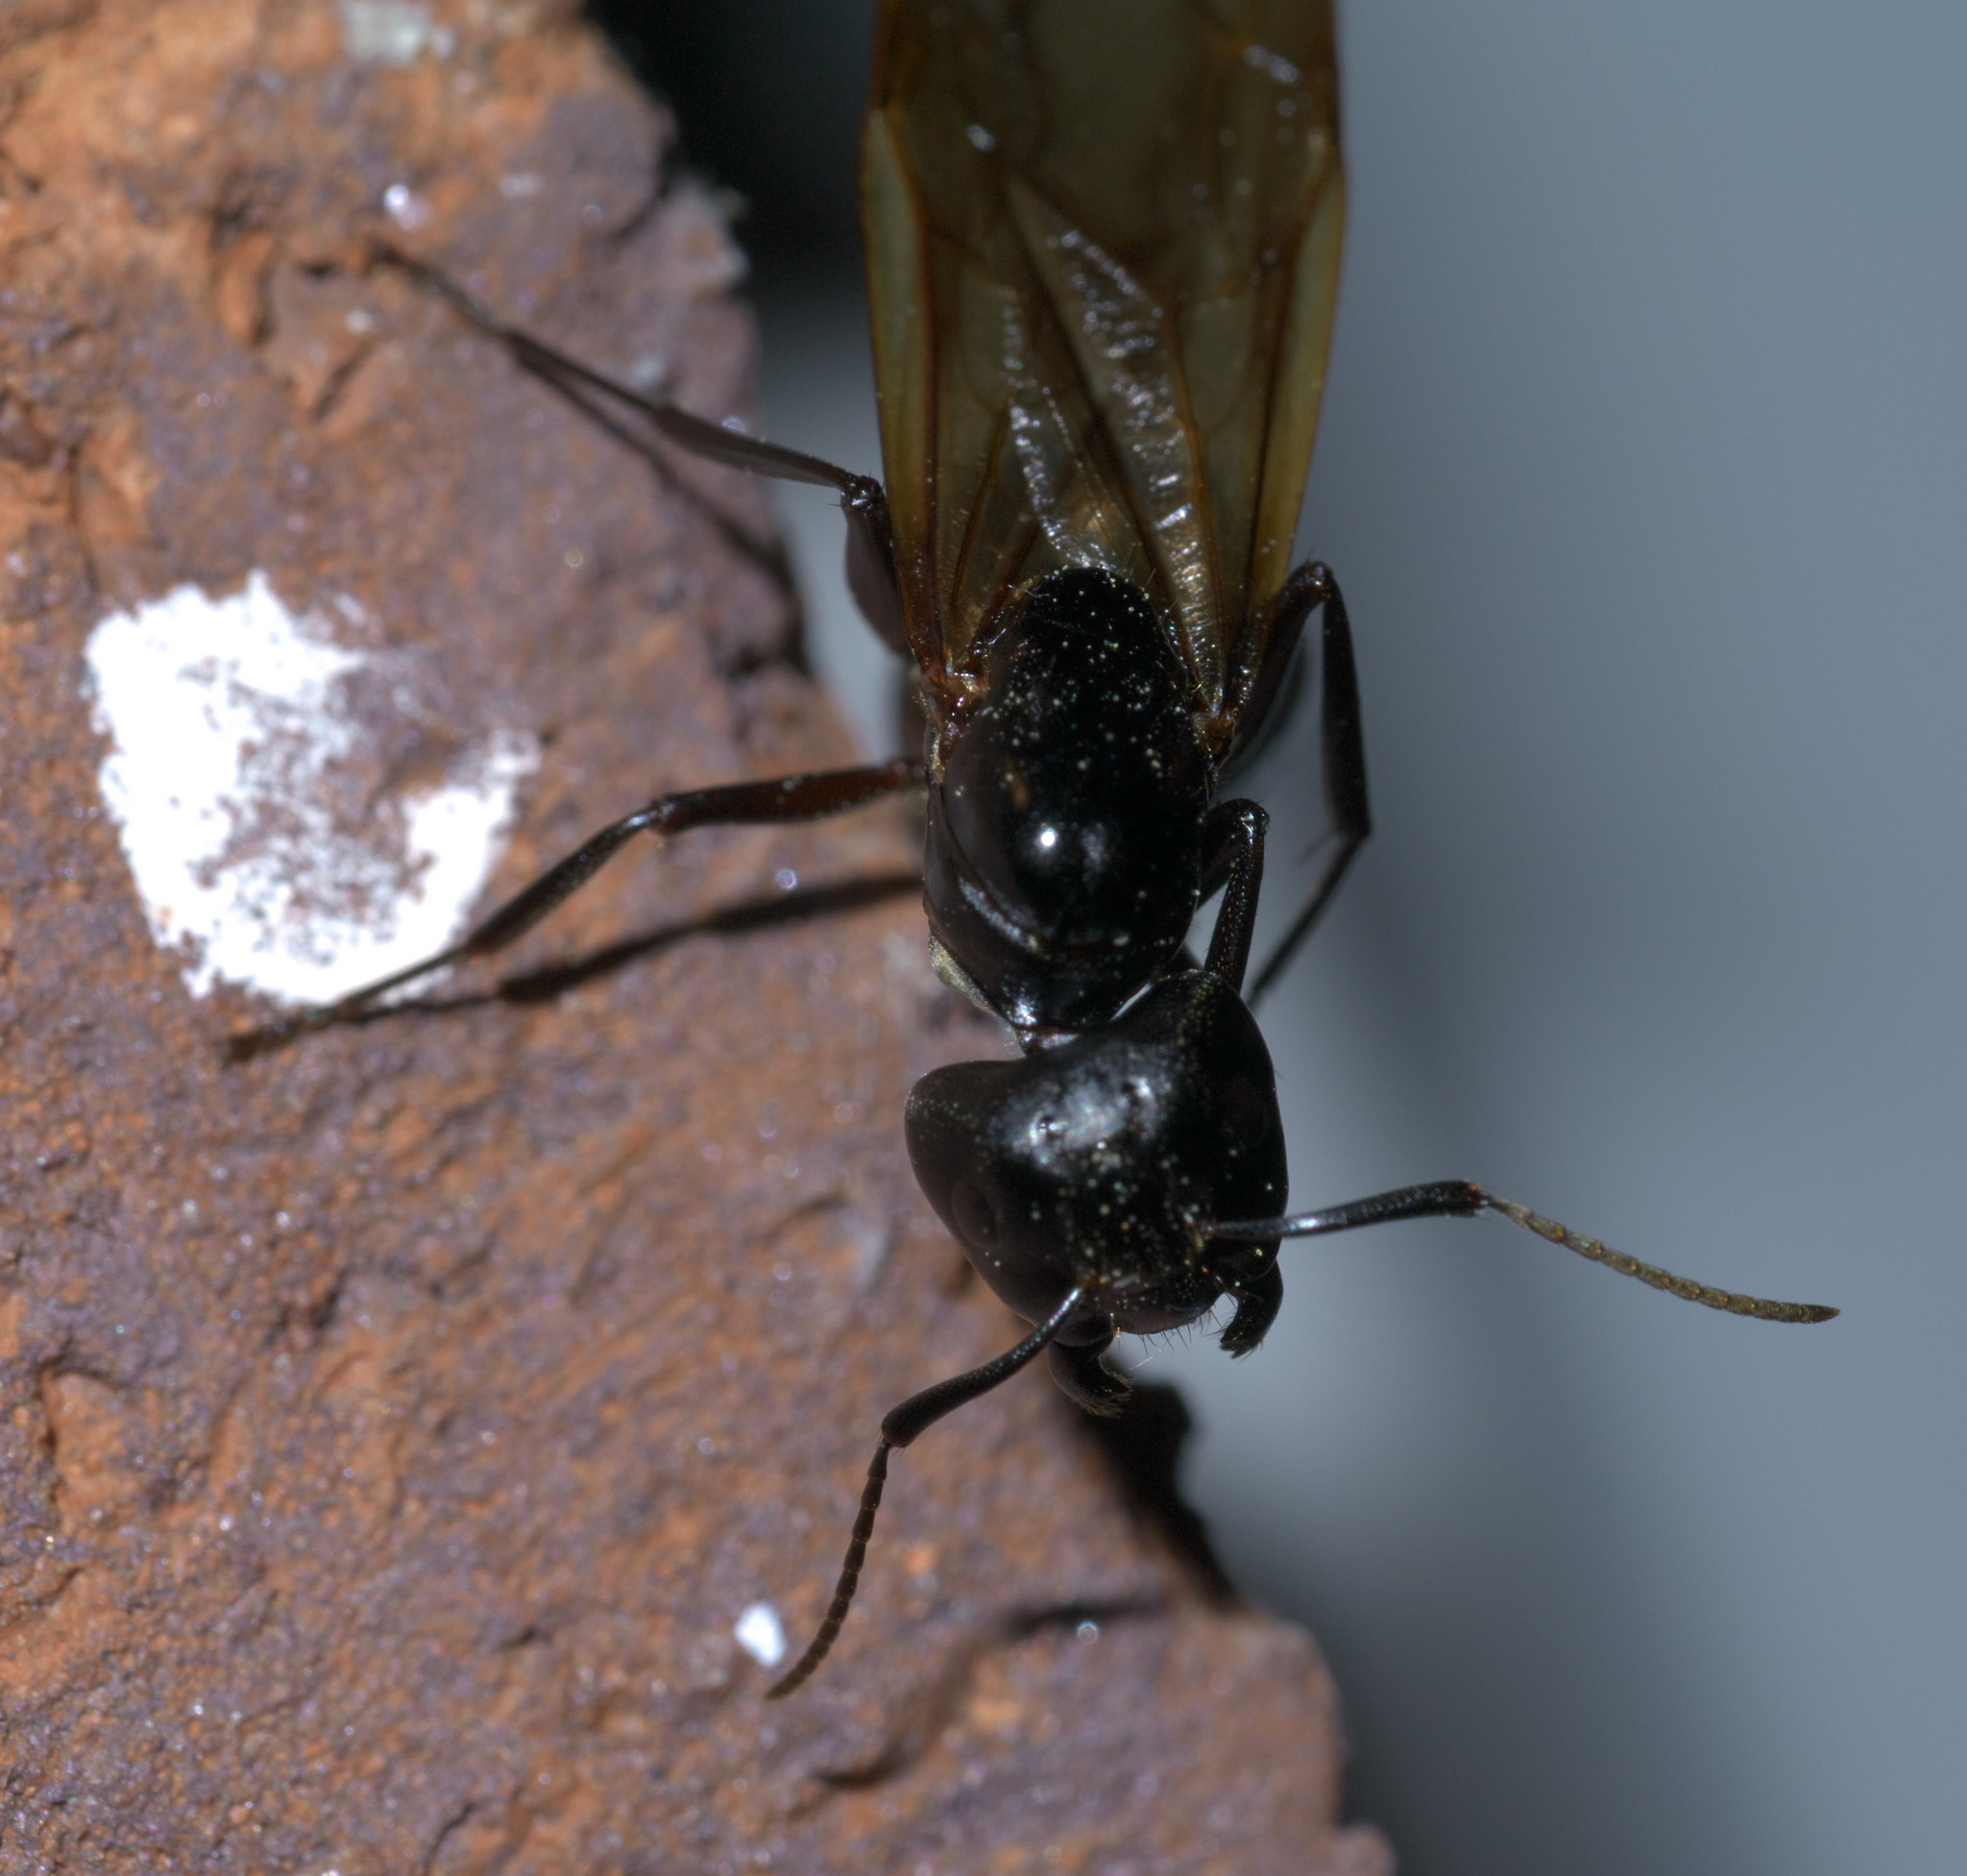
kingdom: Animalia
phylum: Arthropoda
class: Insecta
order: Hymenoptera
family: Formicidae
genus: Camponotus
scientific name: Camponotus pennsylvanicus
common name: Black carpenter ant
